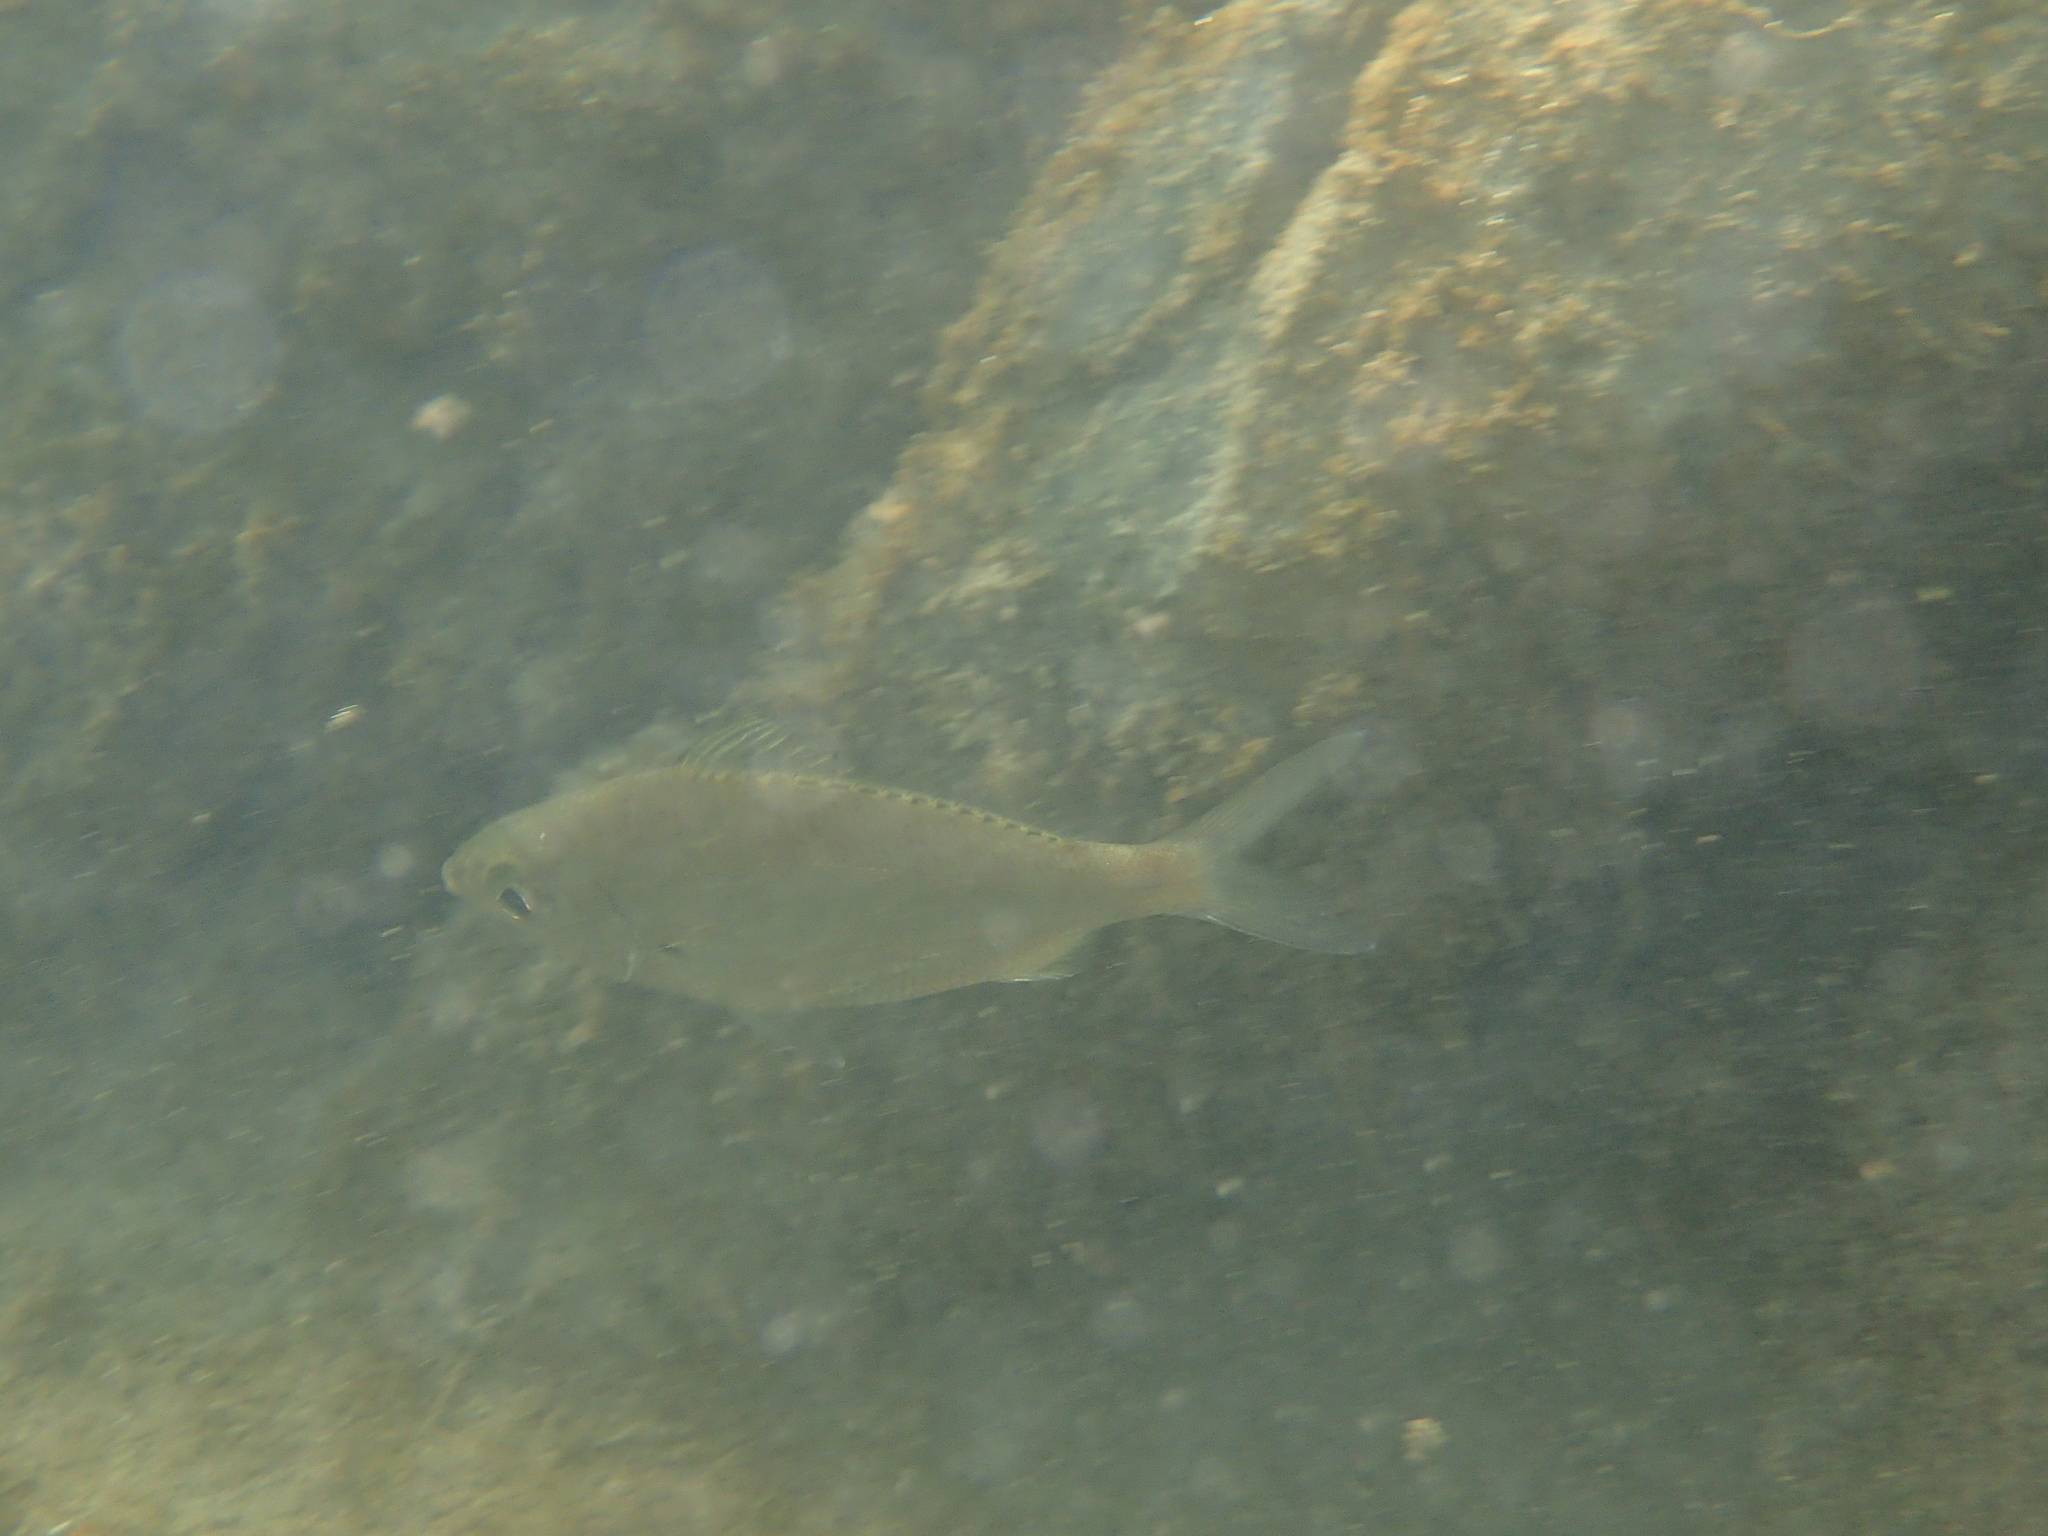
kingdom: Animalia
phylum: Chordata
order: Perciformes
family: Gerreidae
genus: Eucinostomus
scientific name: Eucinostomus dowii
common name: Dow's mojarra
